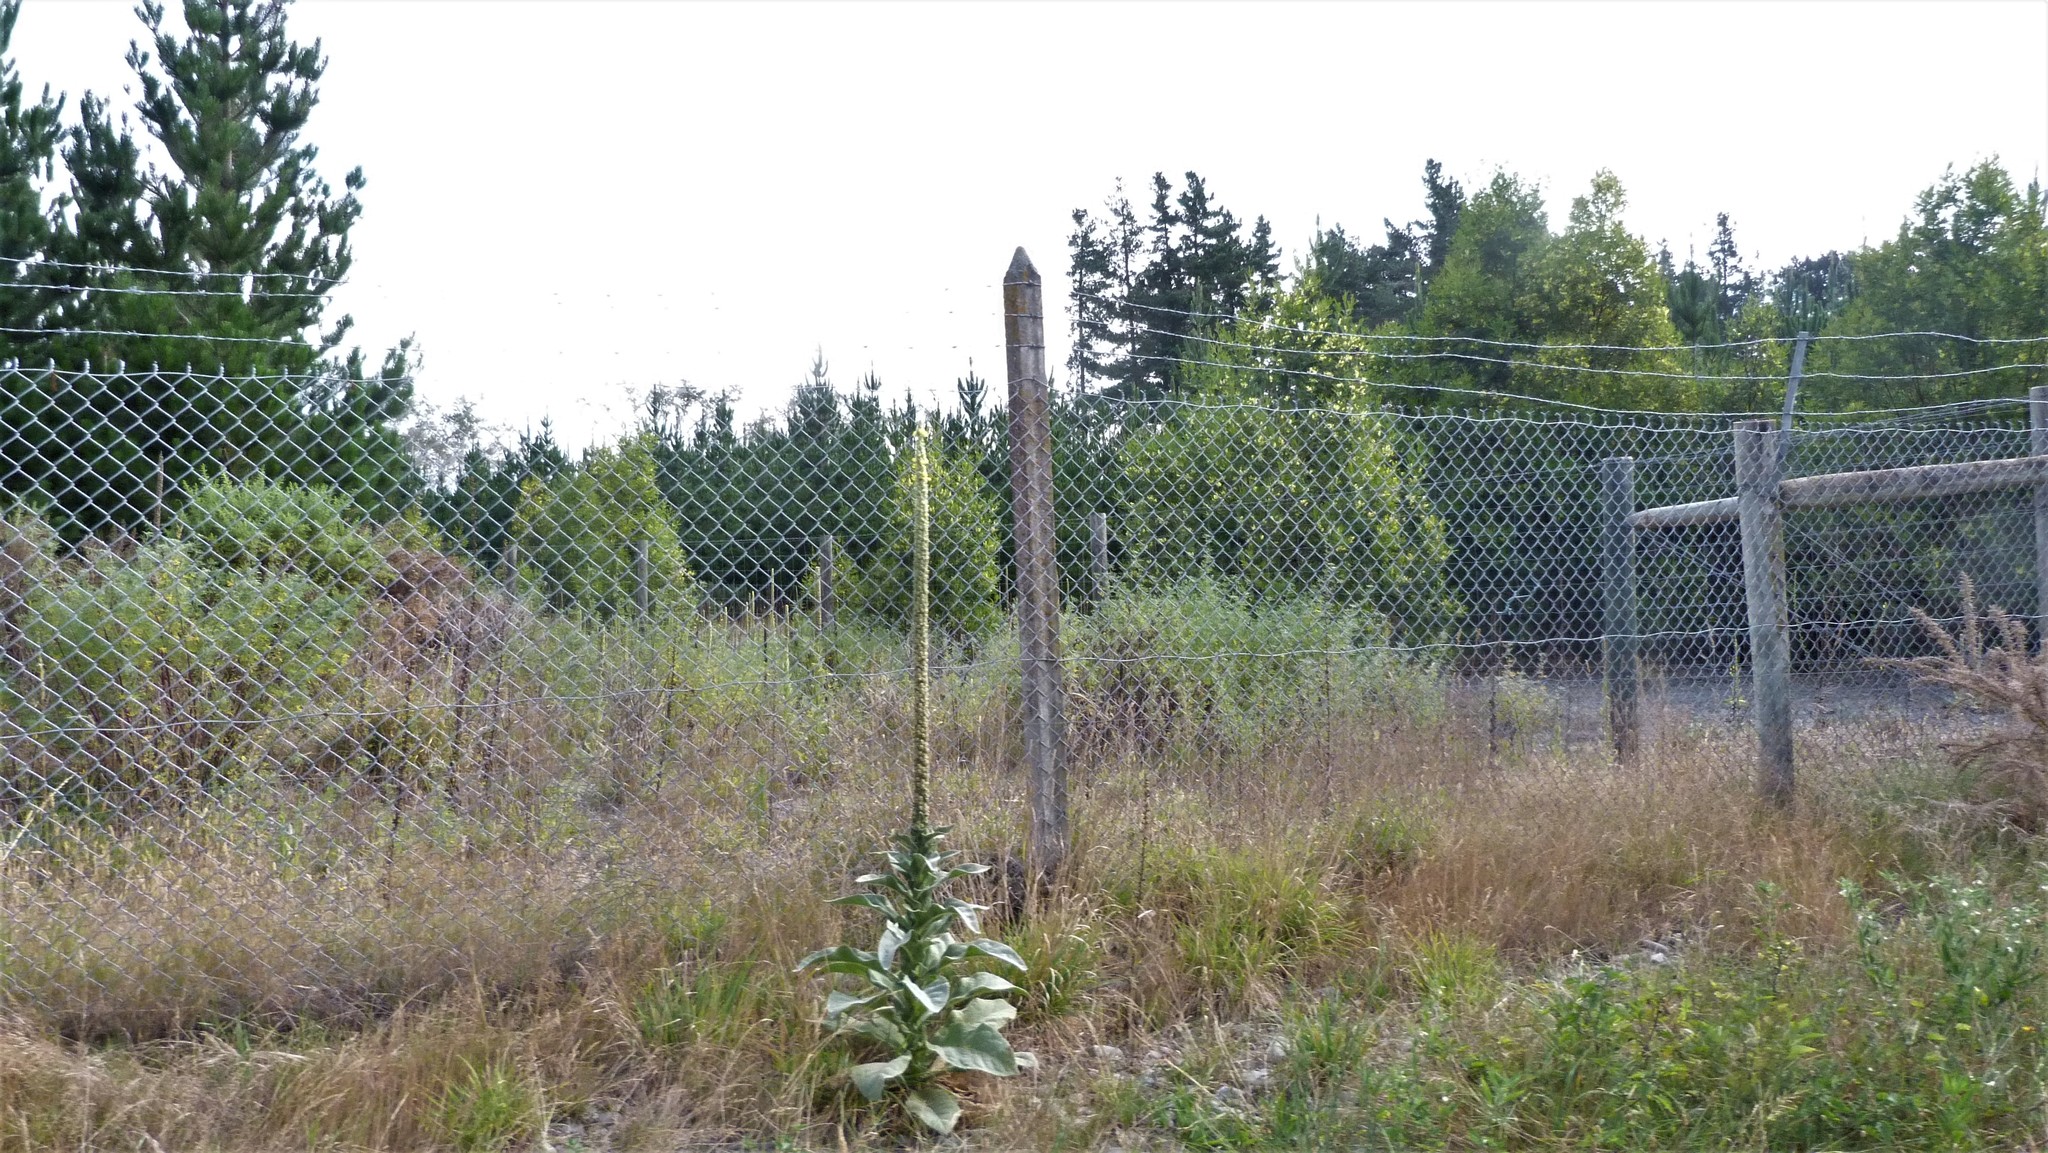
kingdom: Plantae
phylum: Tracheophyta
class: Magnoliopsida
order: Lamiales
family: Scrophulariaceae
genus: Verbascum
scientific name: Verbascum thapsus
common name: Common mullein
